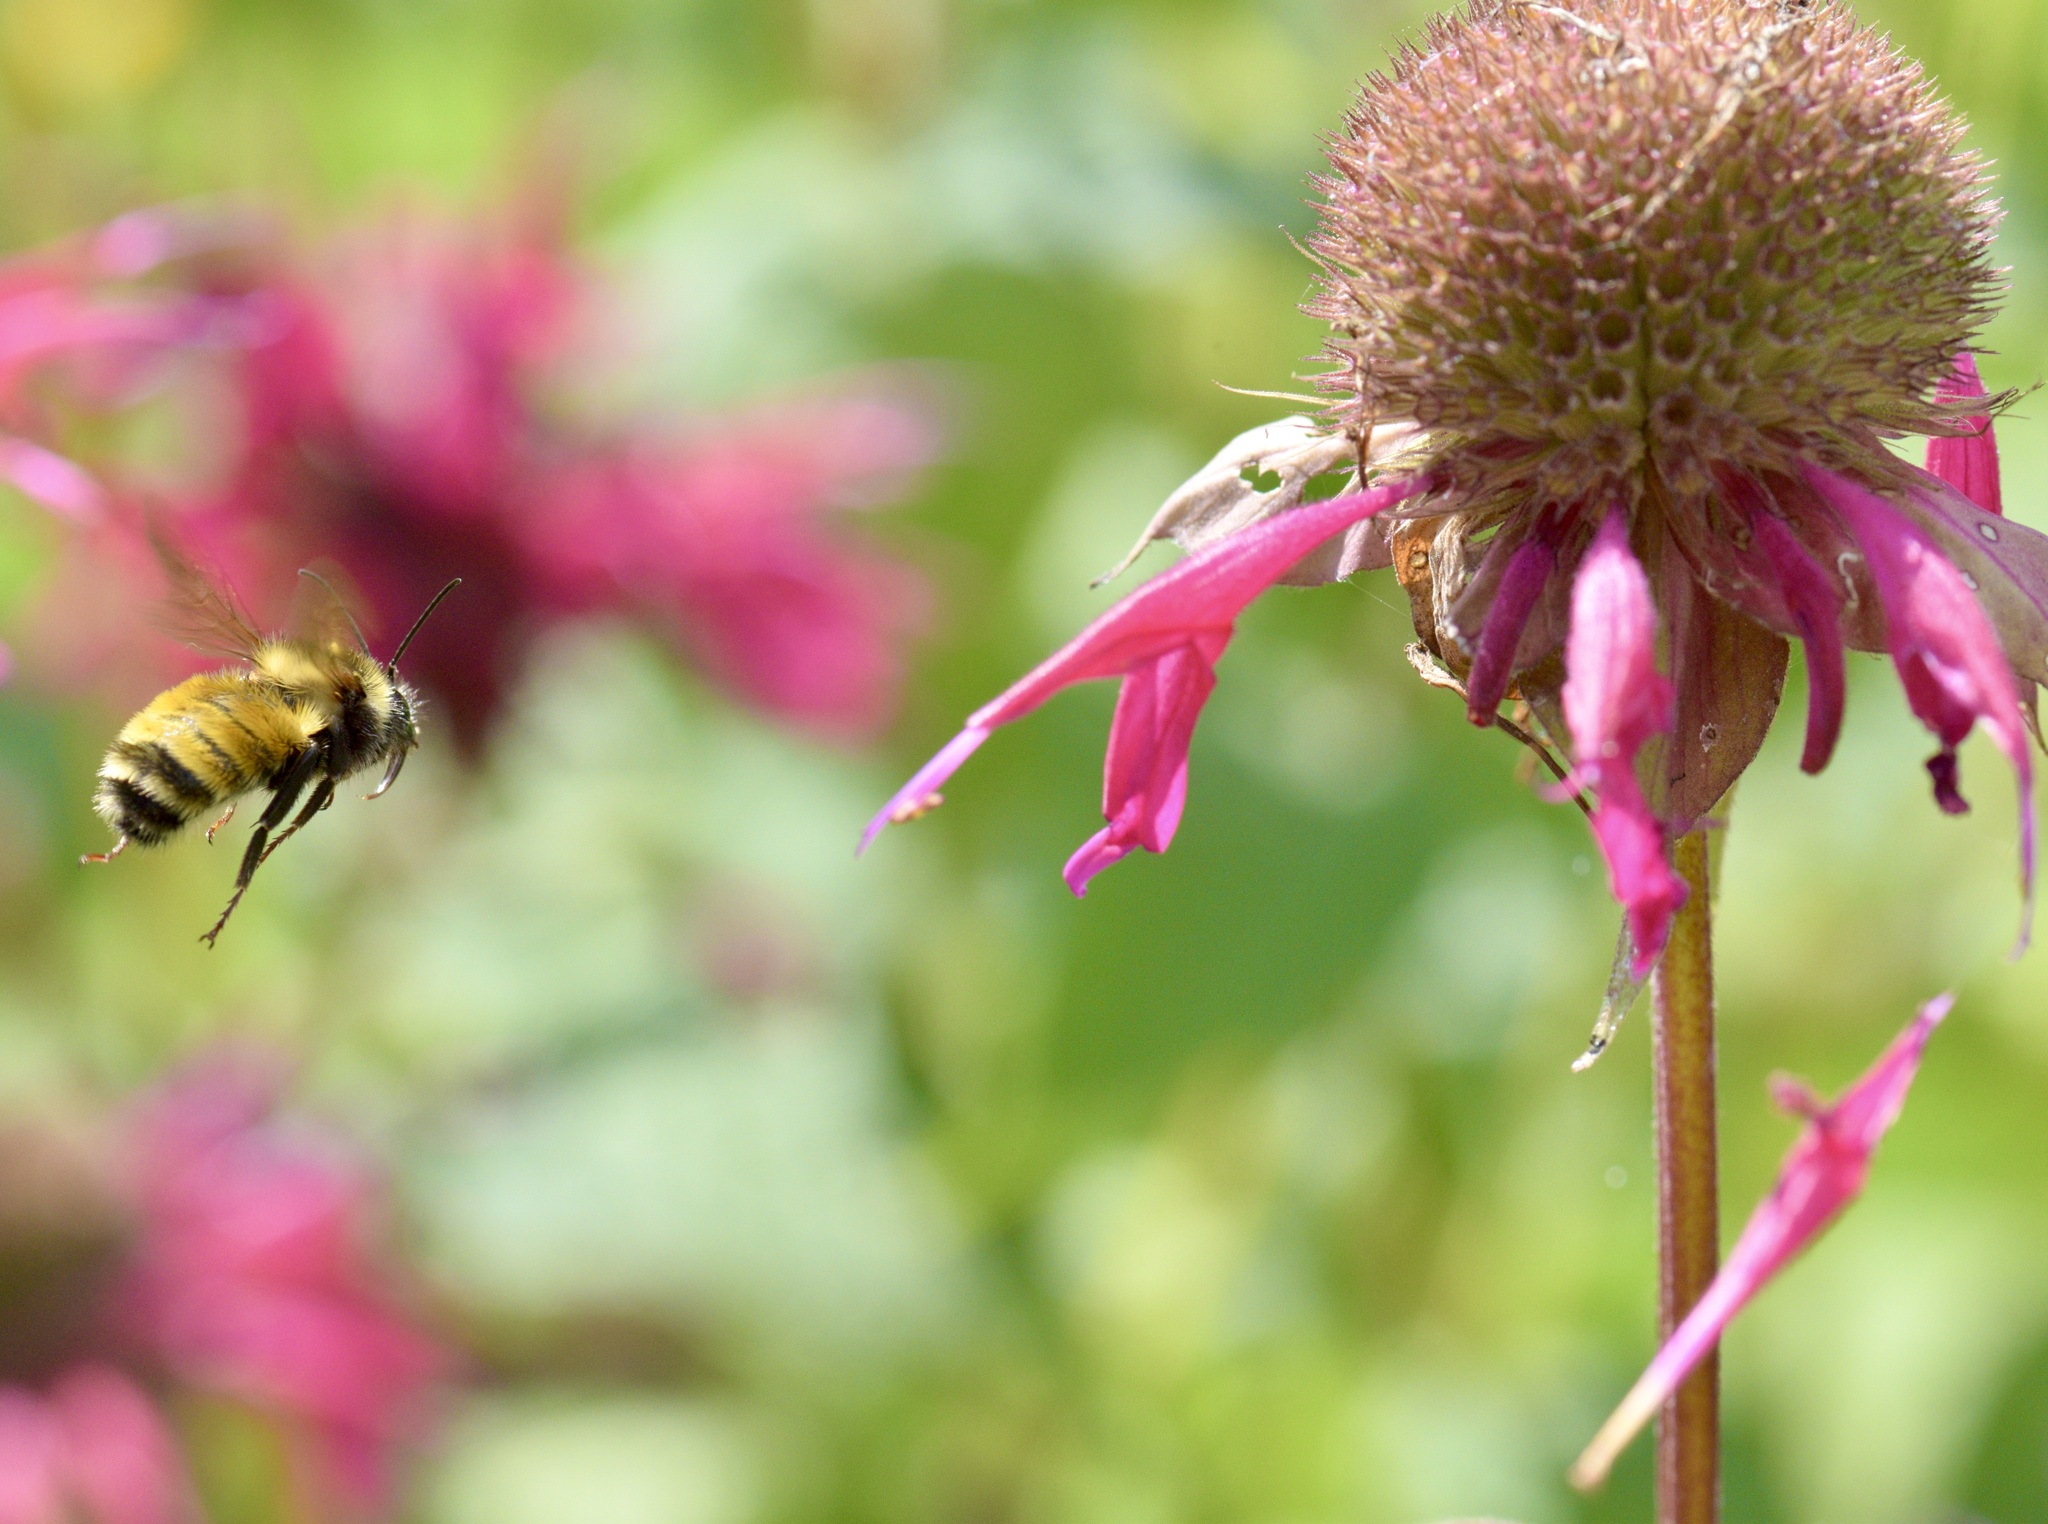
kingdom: Animalia
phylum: Arthropoda
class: Insecta
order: Hymenoptera
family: Apidae
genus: Bombus
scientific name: Bombus borealis
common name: Northern amber bumble bee
